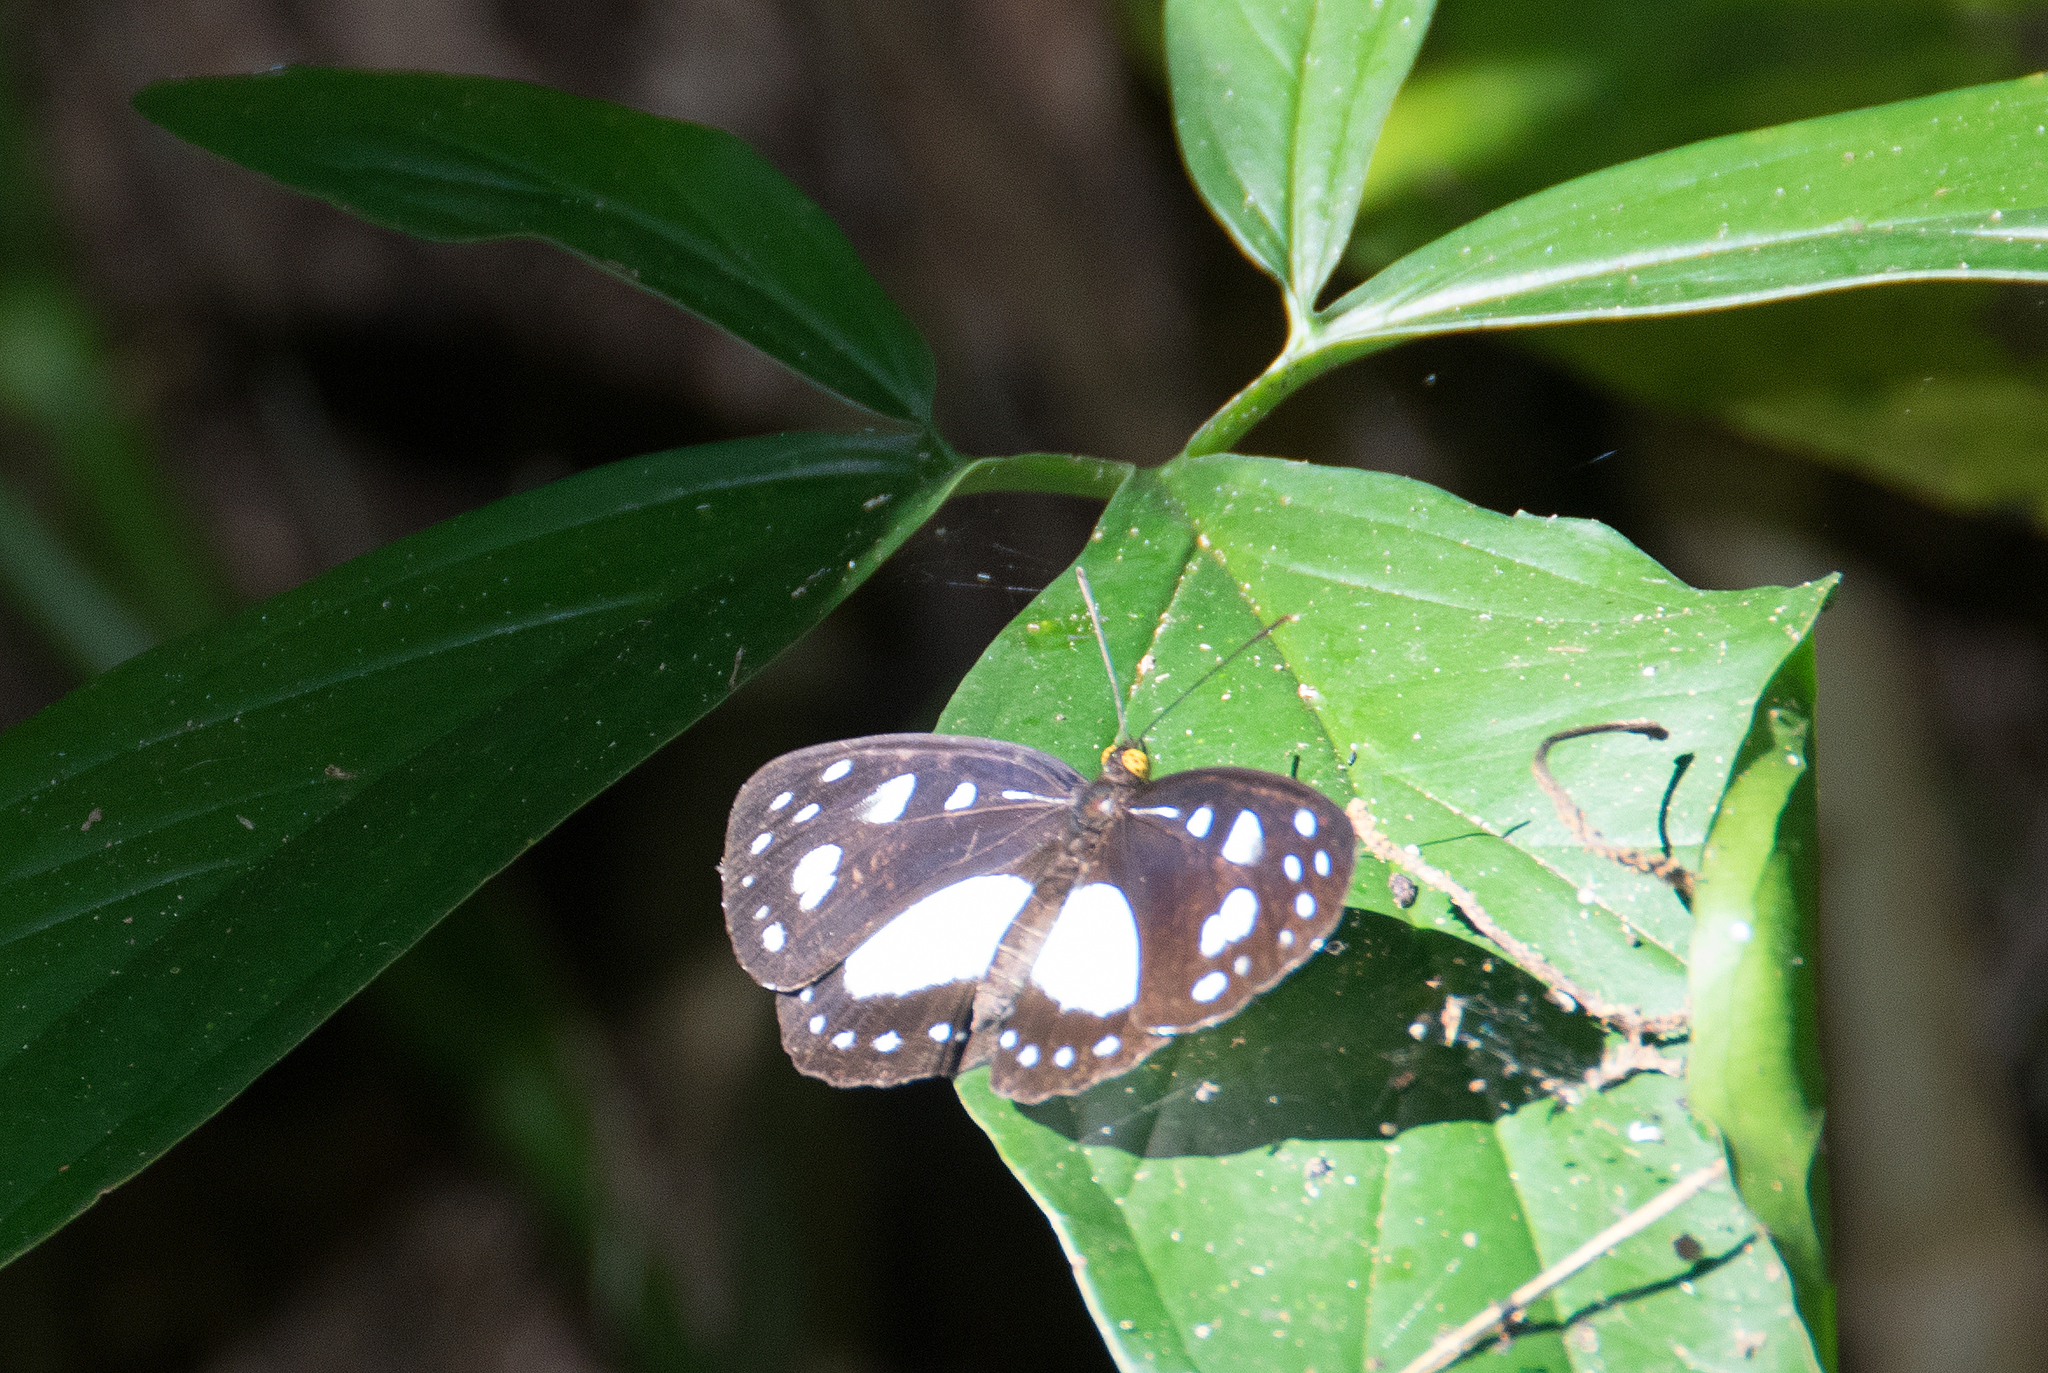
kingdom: Animalia
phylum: Arthropoda
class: Insecta
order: Lepidoptera
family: Nymphalidae
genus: Neptis
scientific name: Neptis praslini
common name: Yellow-eyed plane
